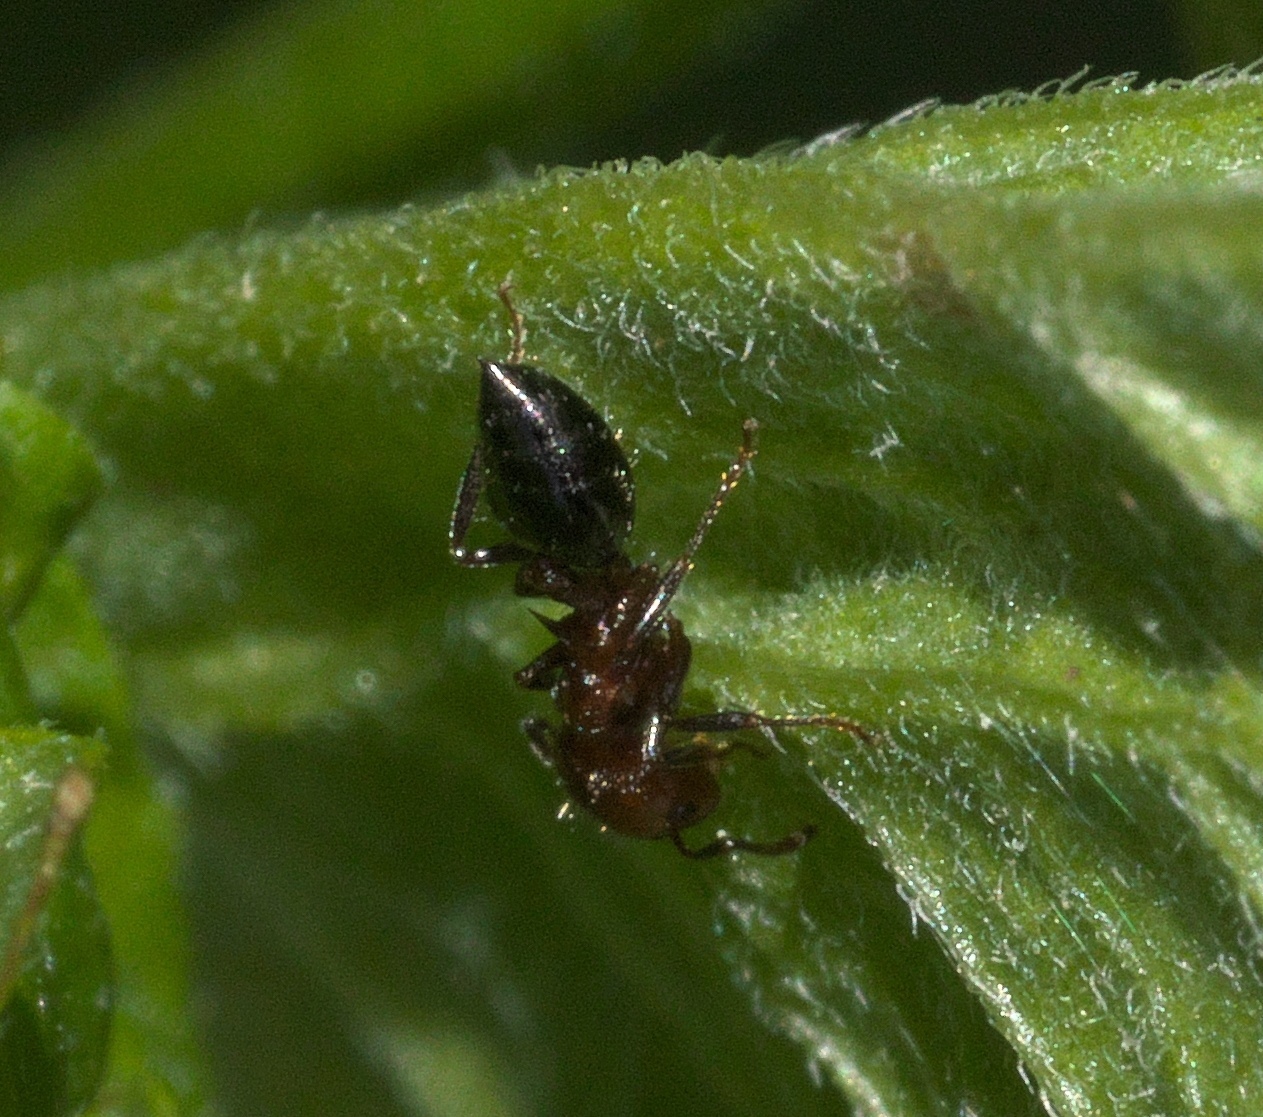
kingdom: Animalia
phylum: Arthropoda
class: Insecta
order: Hymenoptera
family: Formicidae
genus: Crematogaster
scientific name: Crematogaster laeviuscula
